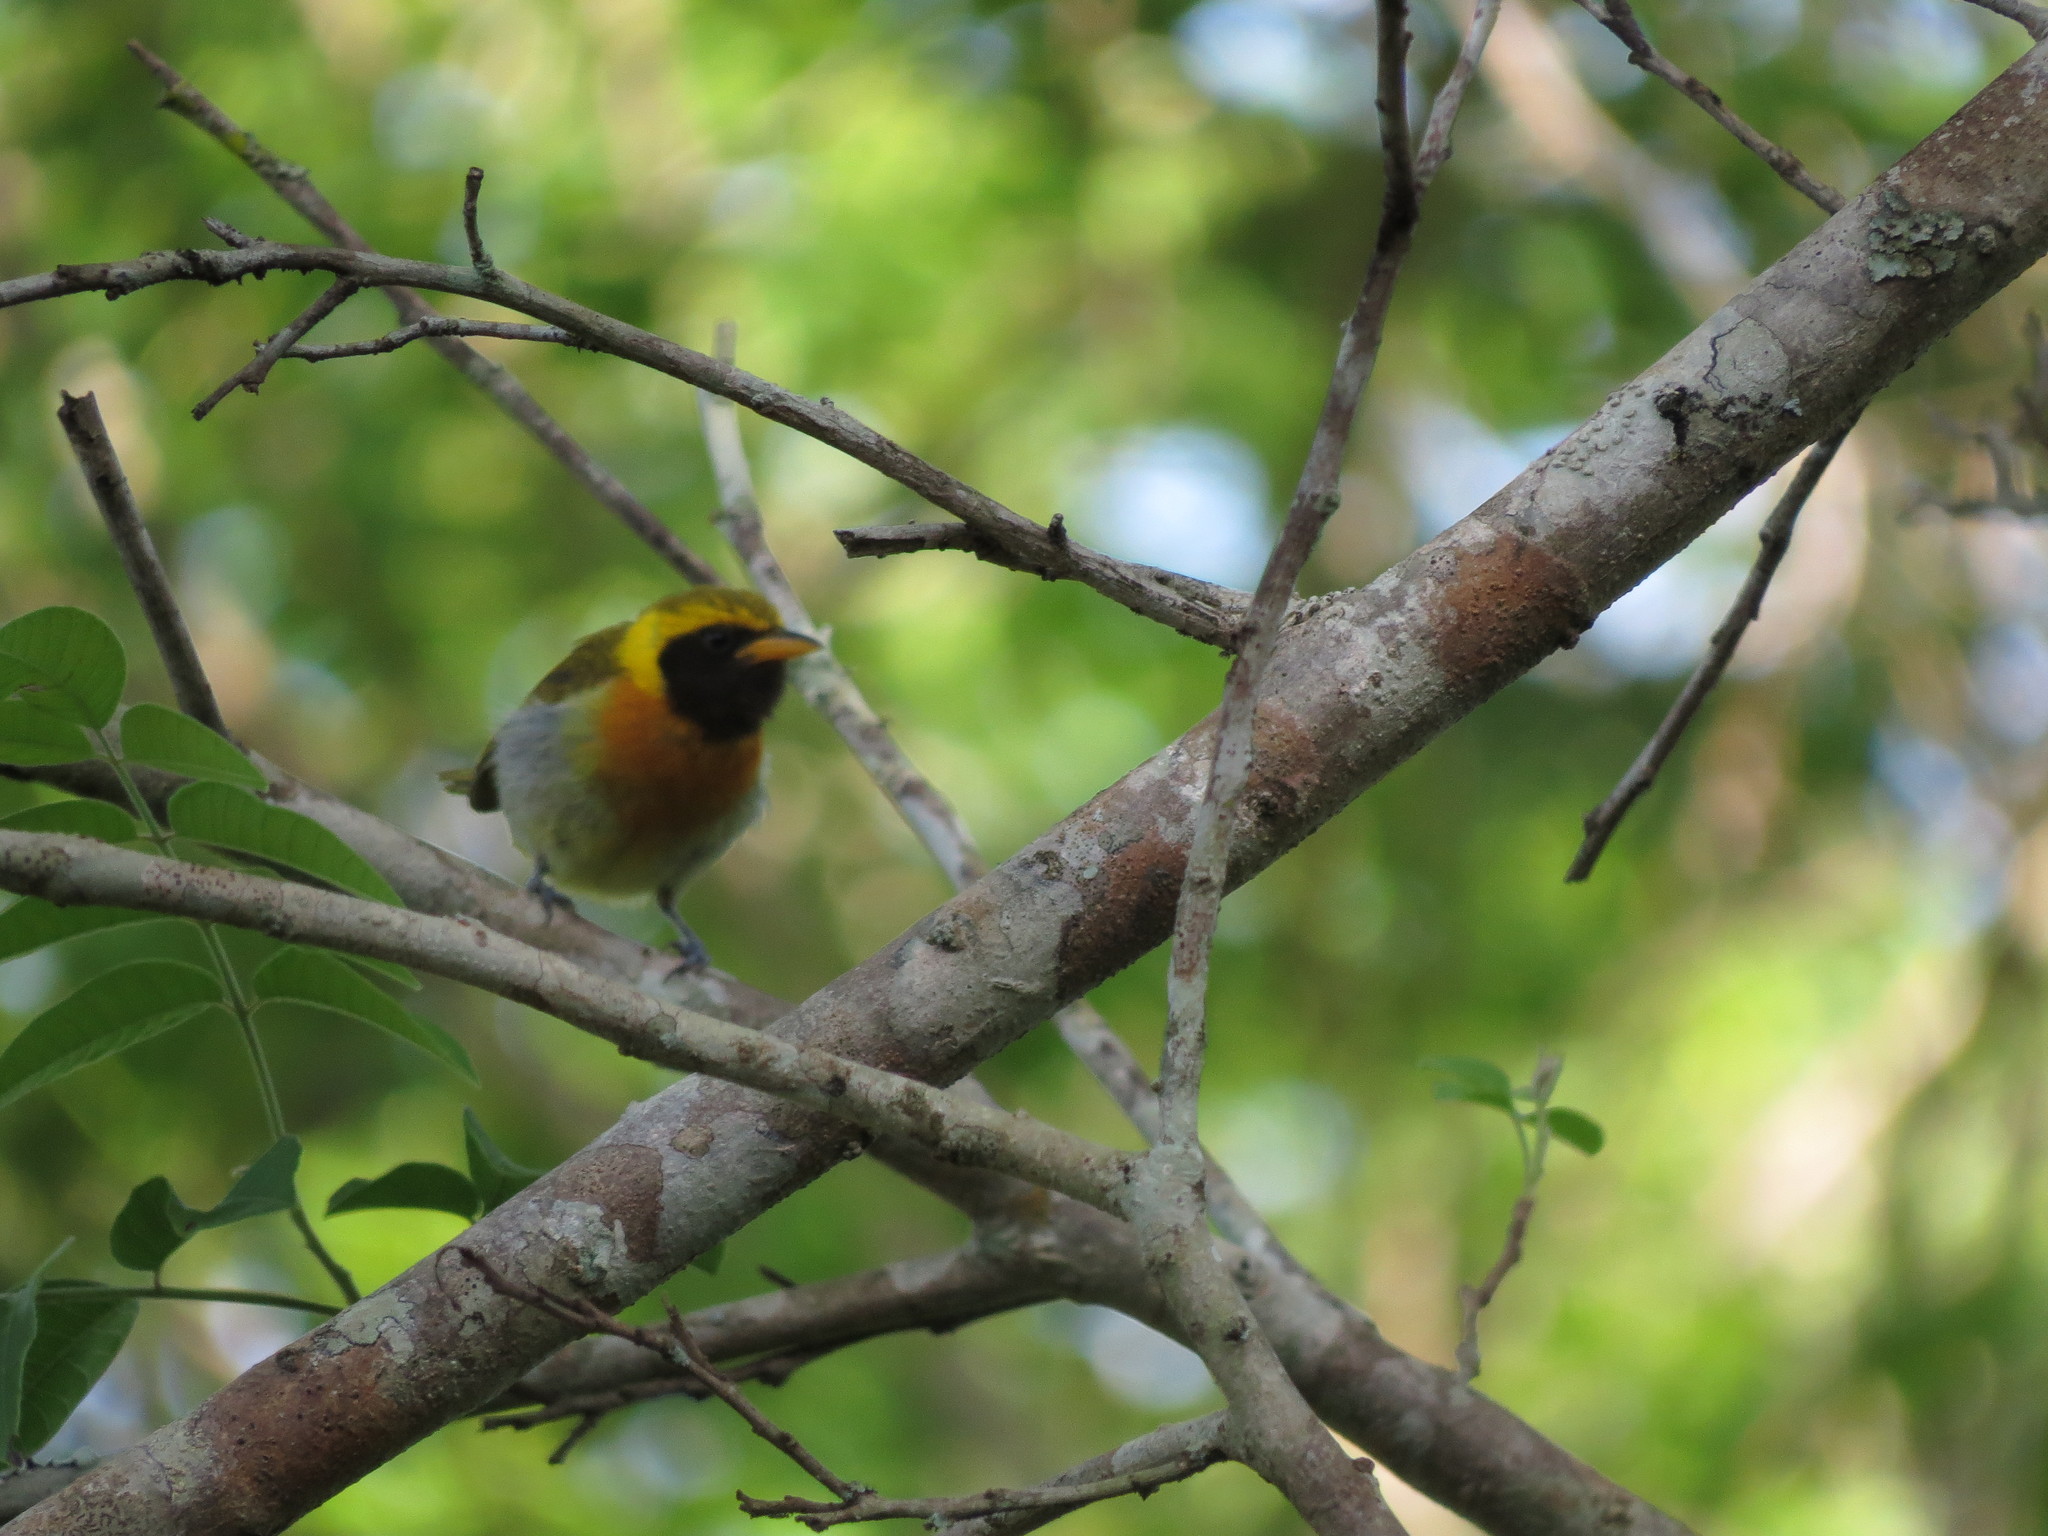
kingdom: Animalia
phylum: Chordata
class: Aves
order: Passeriformes
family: Thraupidae
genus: Hemithraupis
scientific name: Hemithraupis guira
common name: Guira tanager
